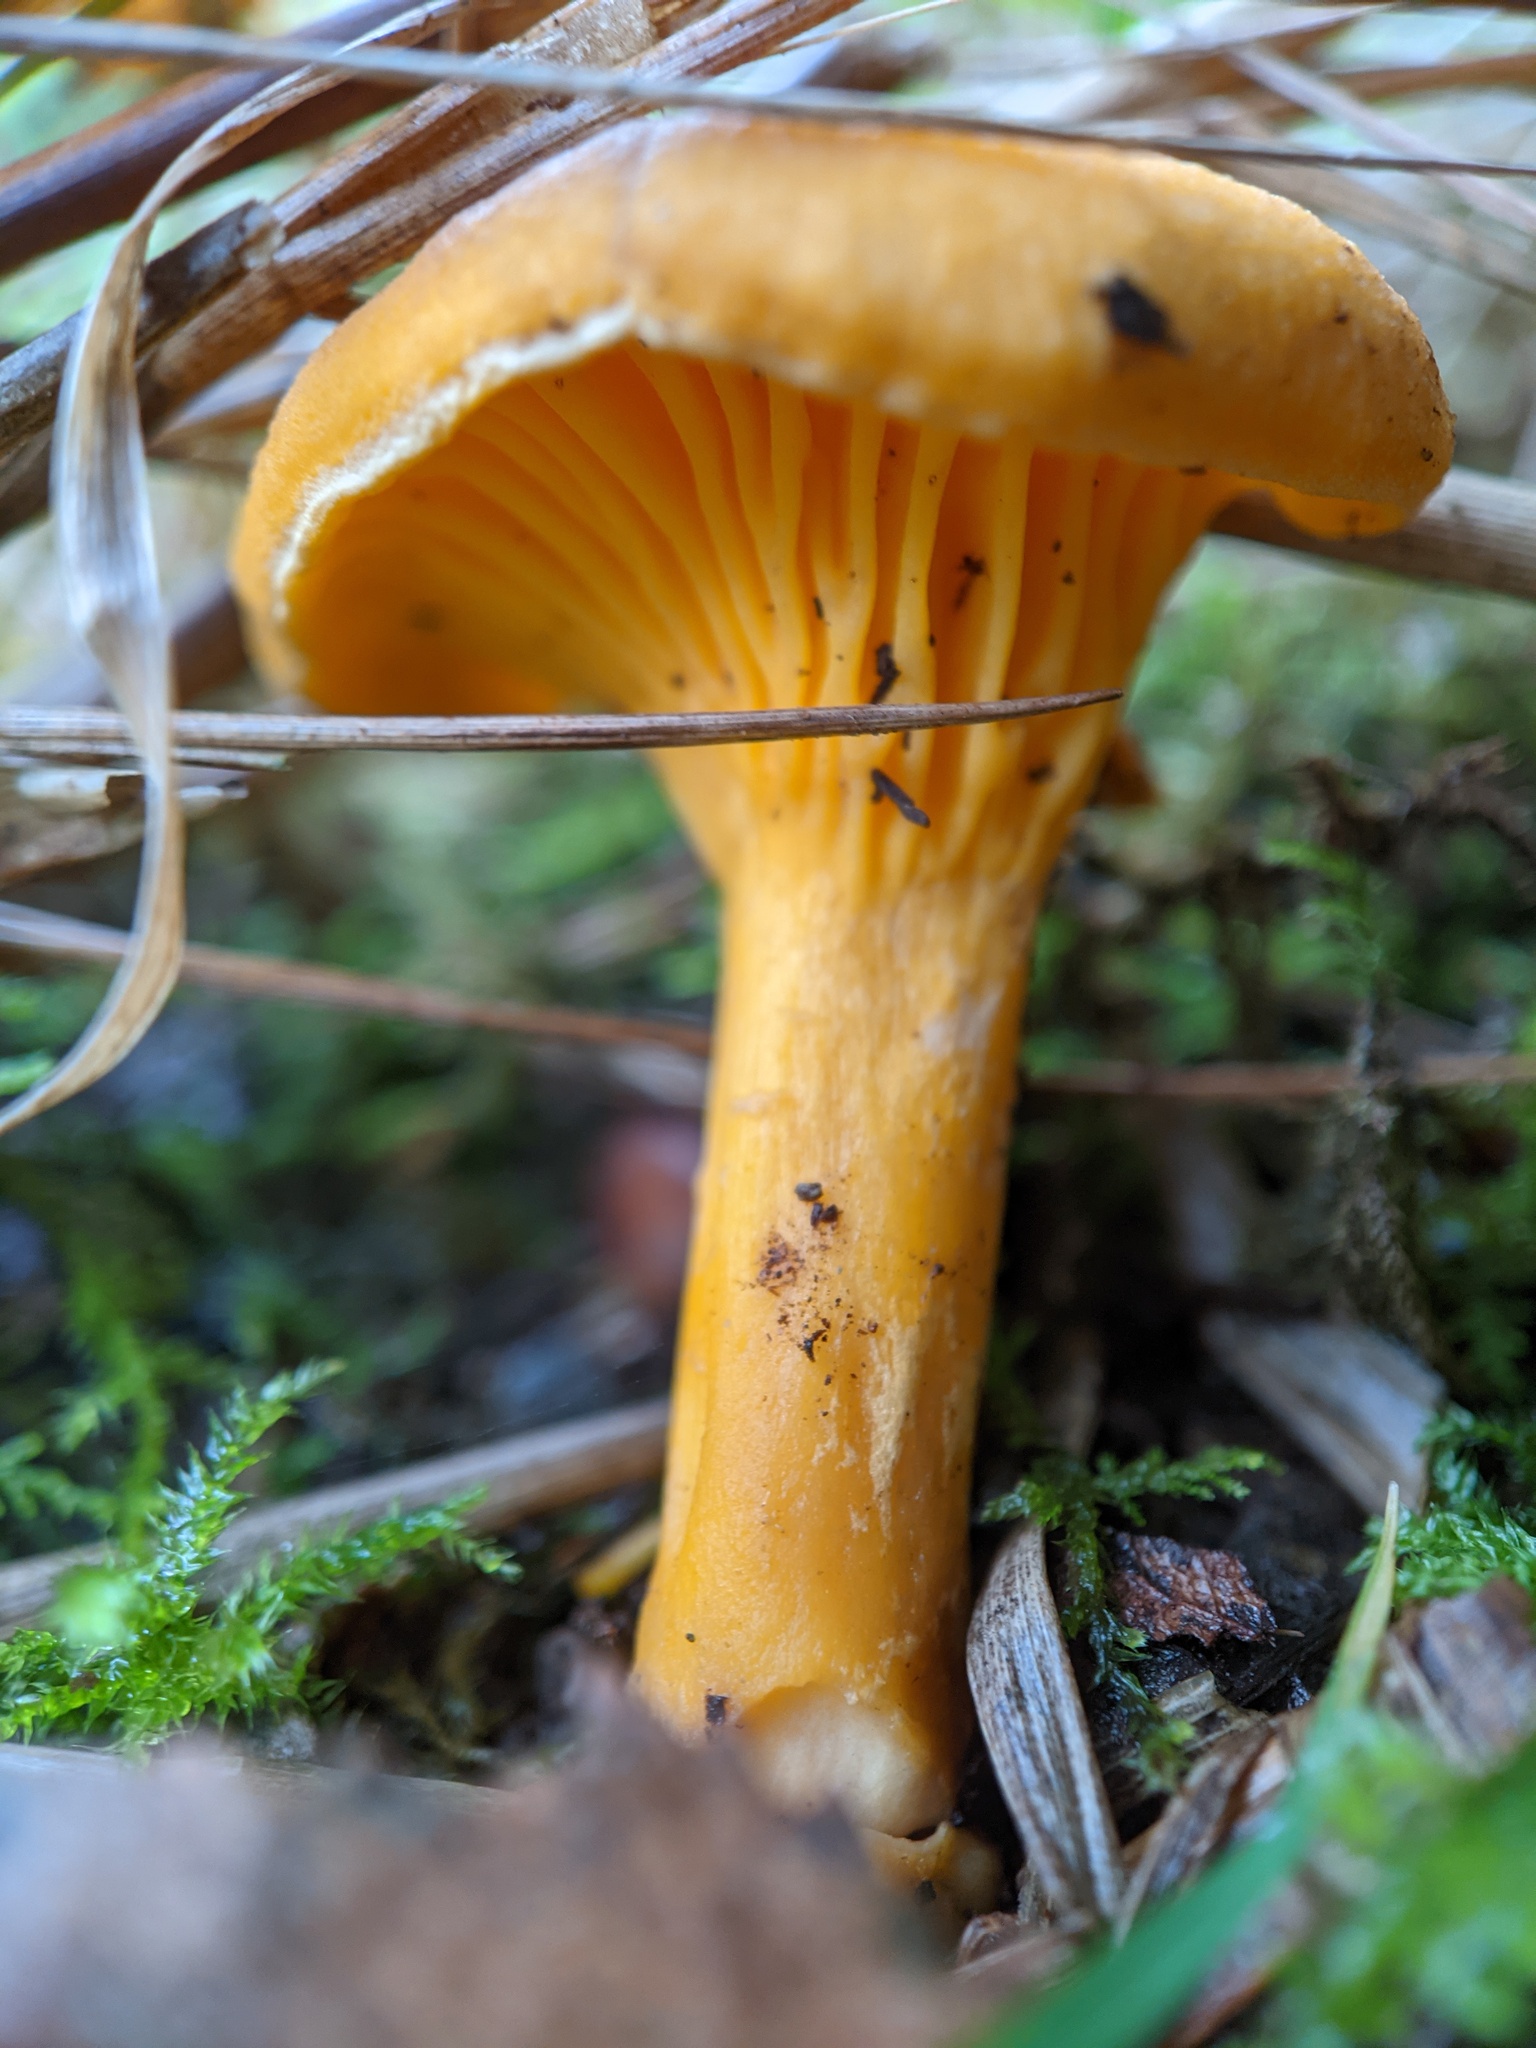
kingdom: Fungi
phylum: Basidiomycota
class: Agaricomycetes
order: Cantharellales
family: Hydnaceae
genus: Cantharellus
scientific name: Cantharellus cibarius
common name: Chanterelle
